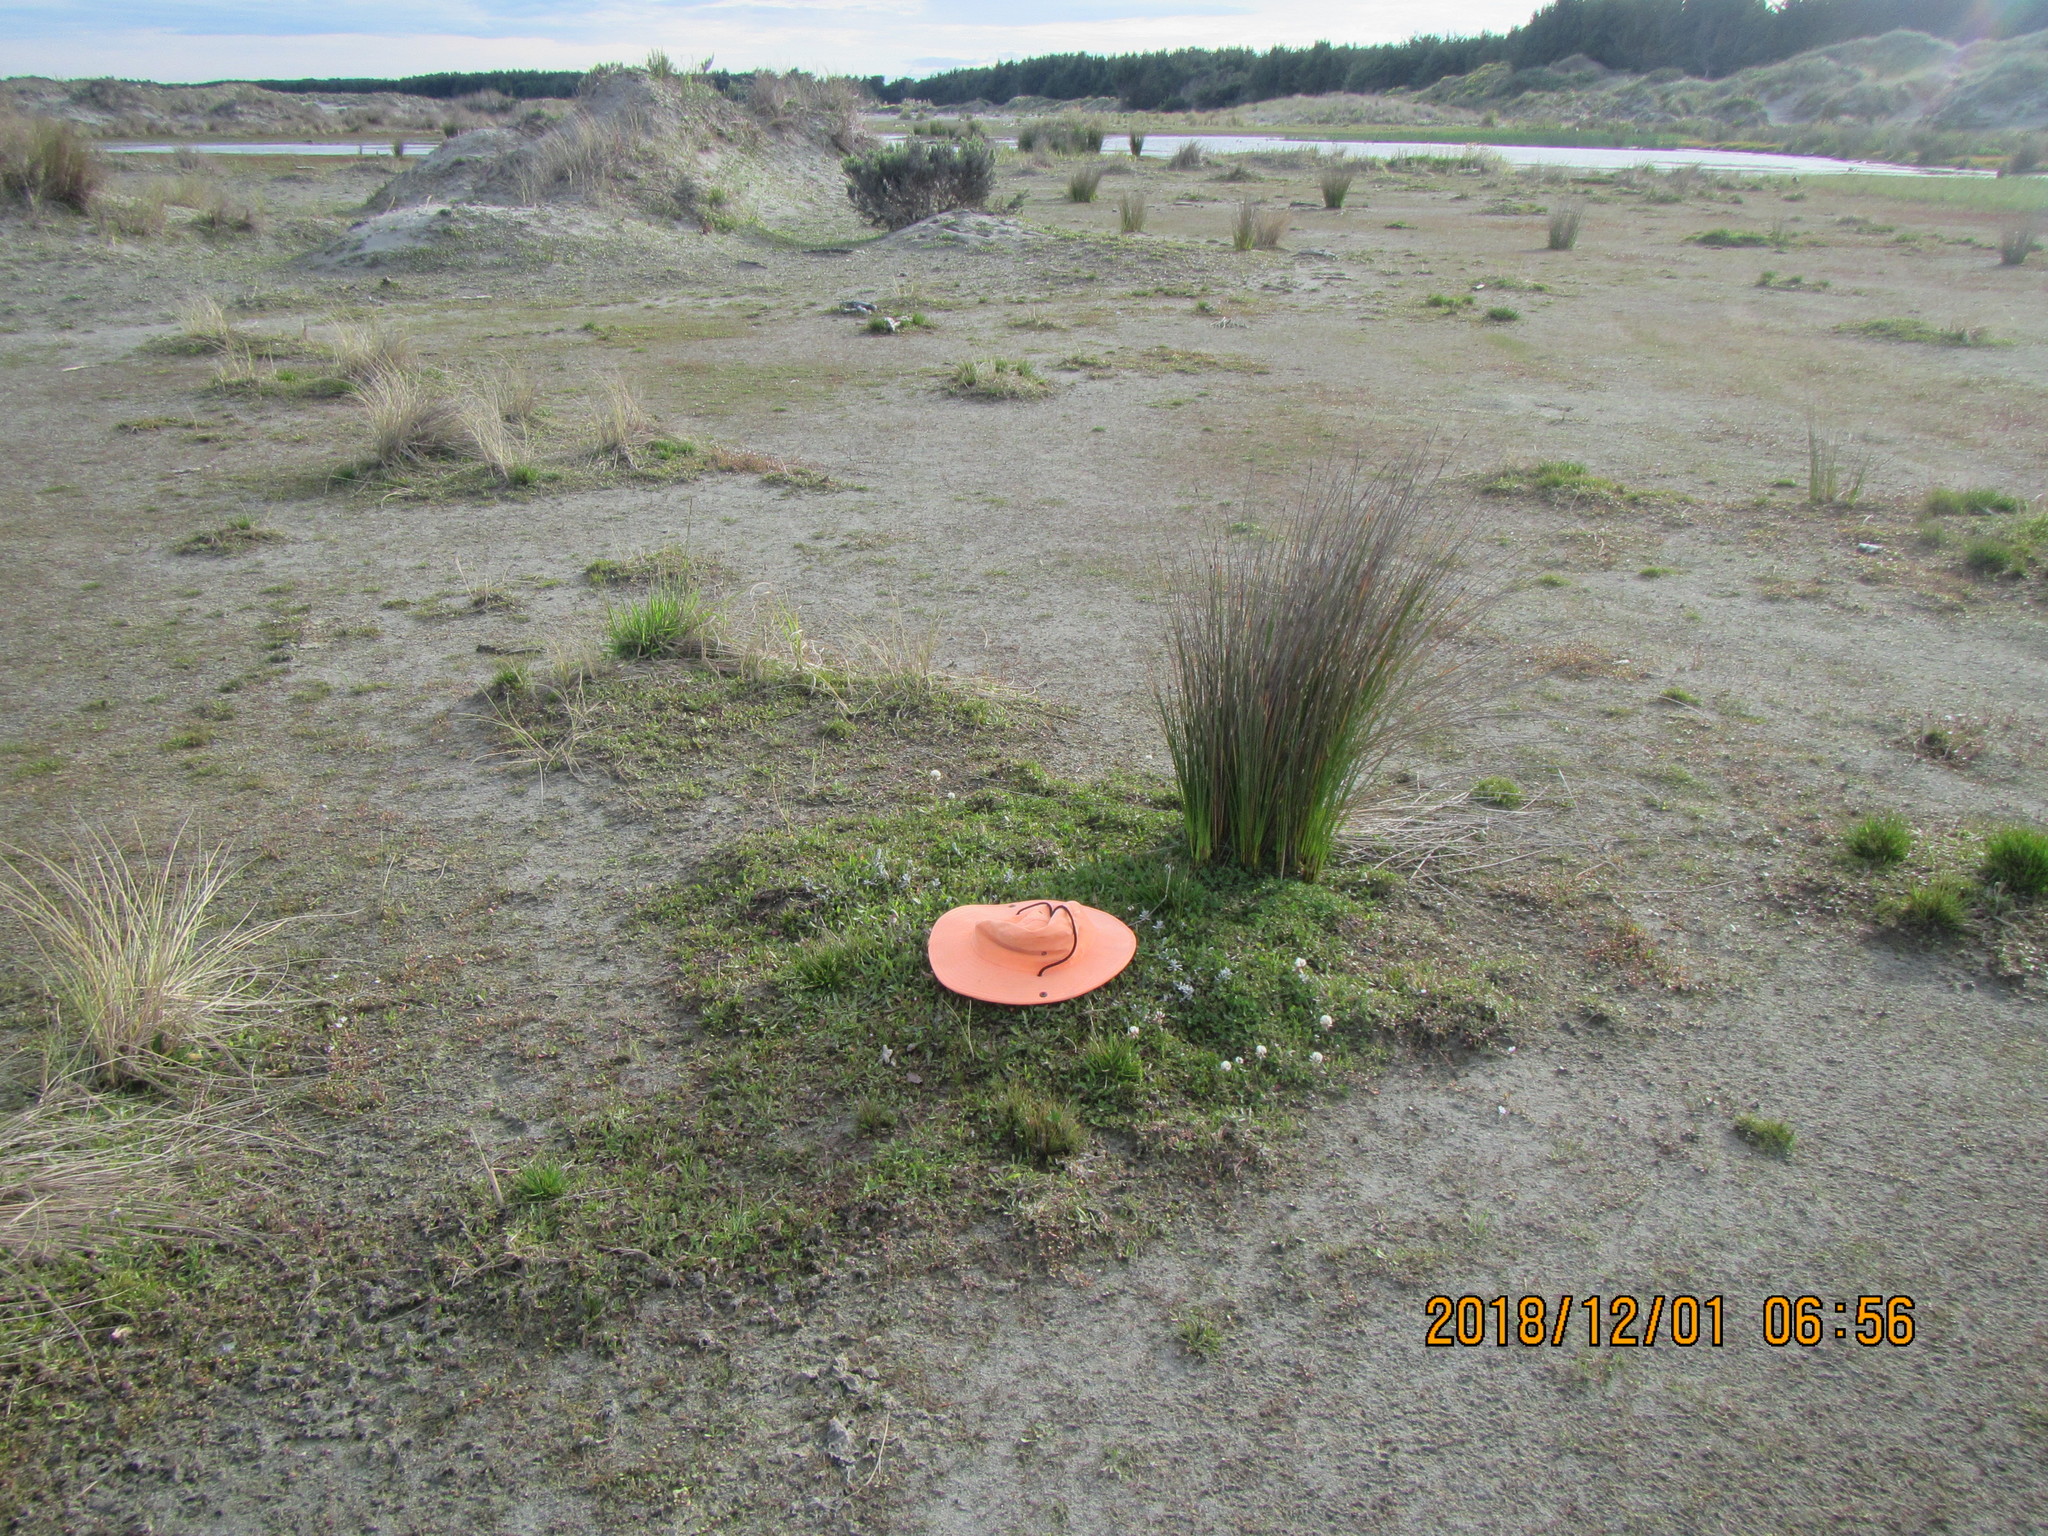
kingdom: Plantae
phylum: Tracheophyta
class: Magnoliopsida
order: Fabales
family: Fabaceae
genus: Trifolium
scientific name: Trifolium repens
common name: White clover
